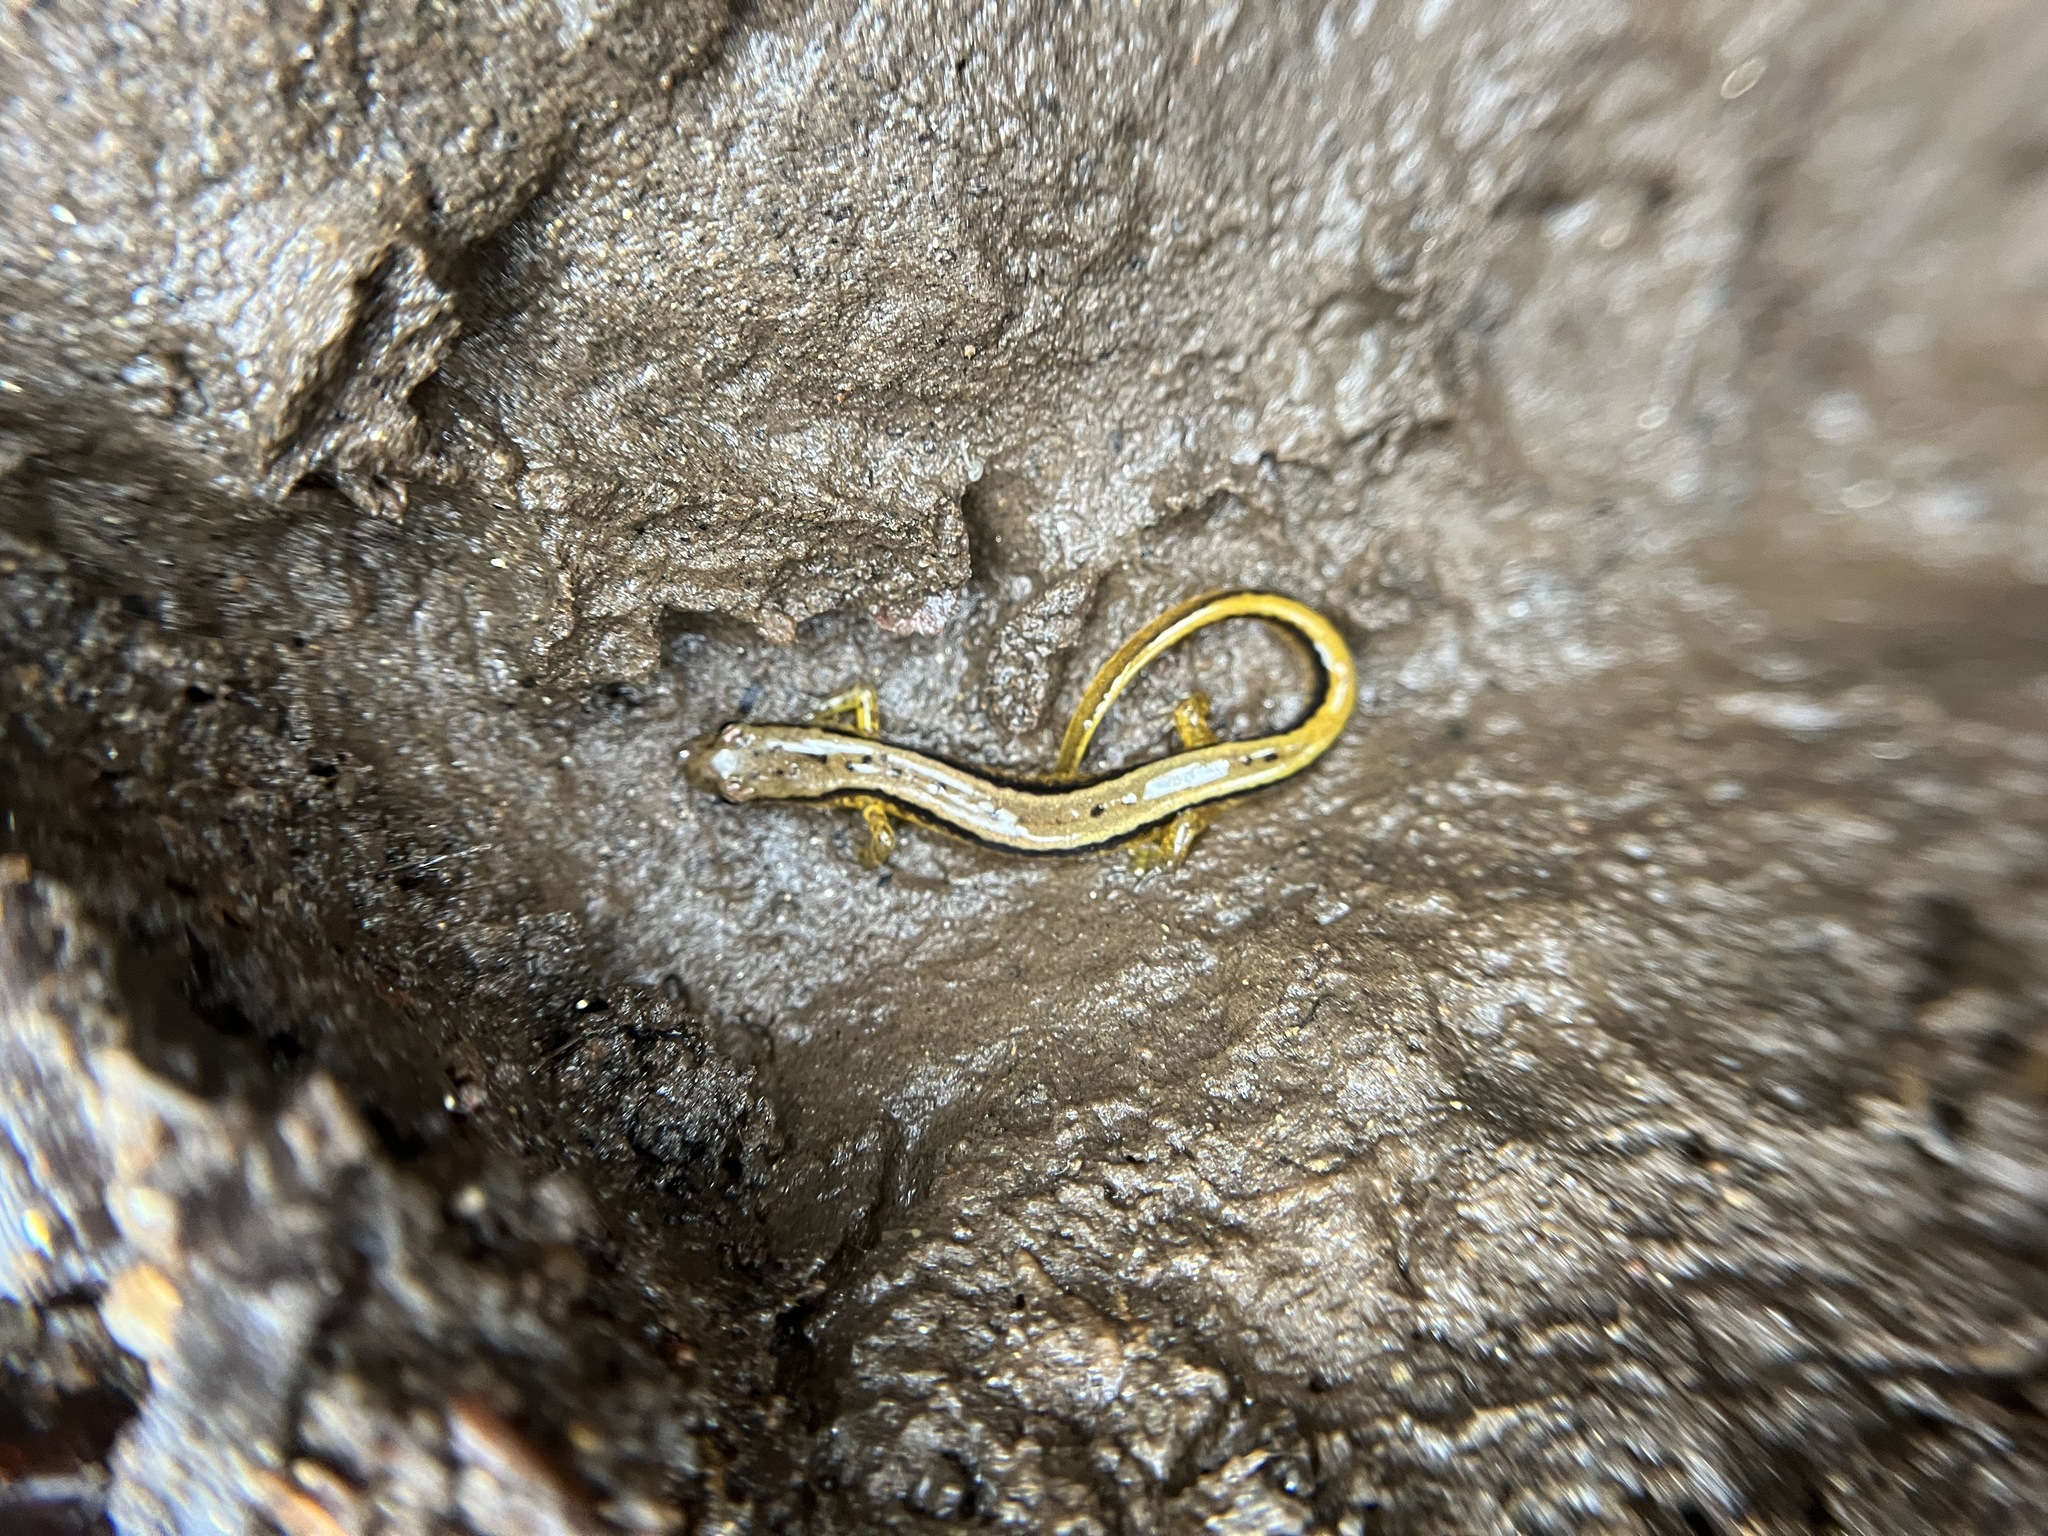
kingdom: Animalia
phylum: Chordata
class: Amphibia
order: Caudata
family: Plethodontidae
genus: Eurycea
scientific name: Eurycea cirrigera
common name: Southern two-lined salamander
